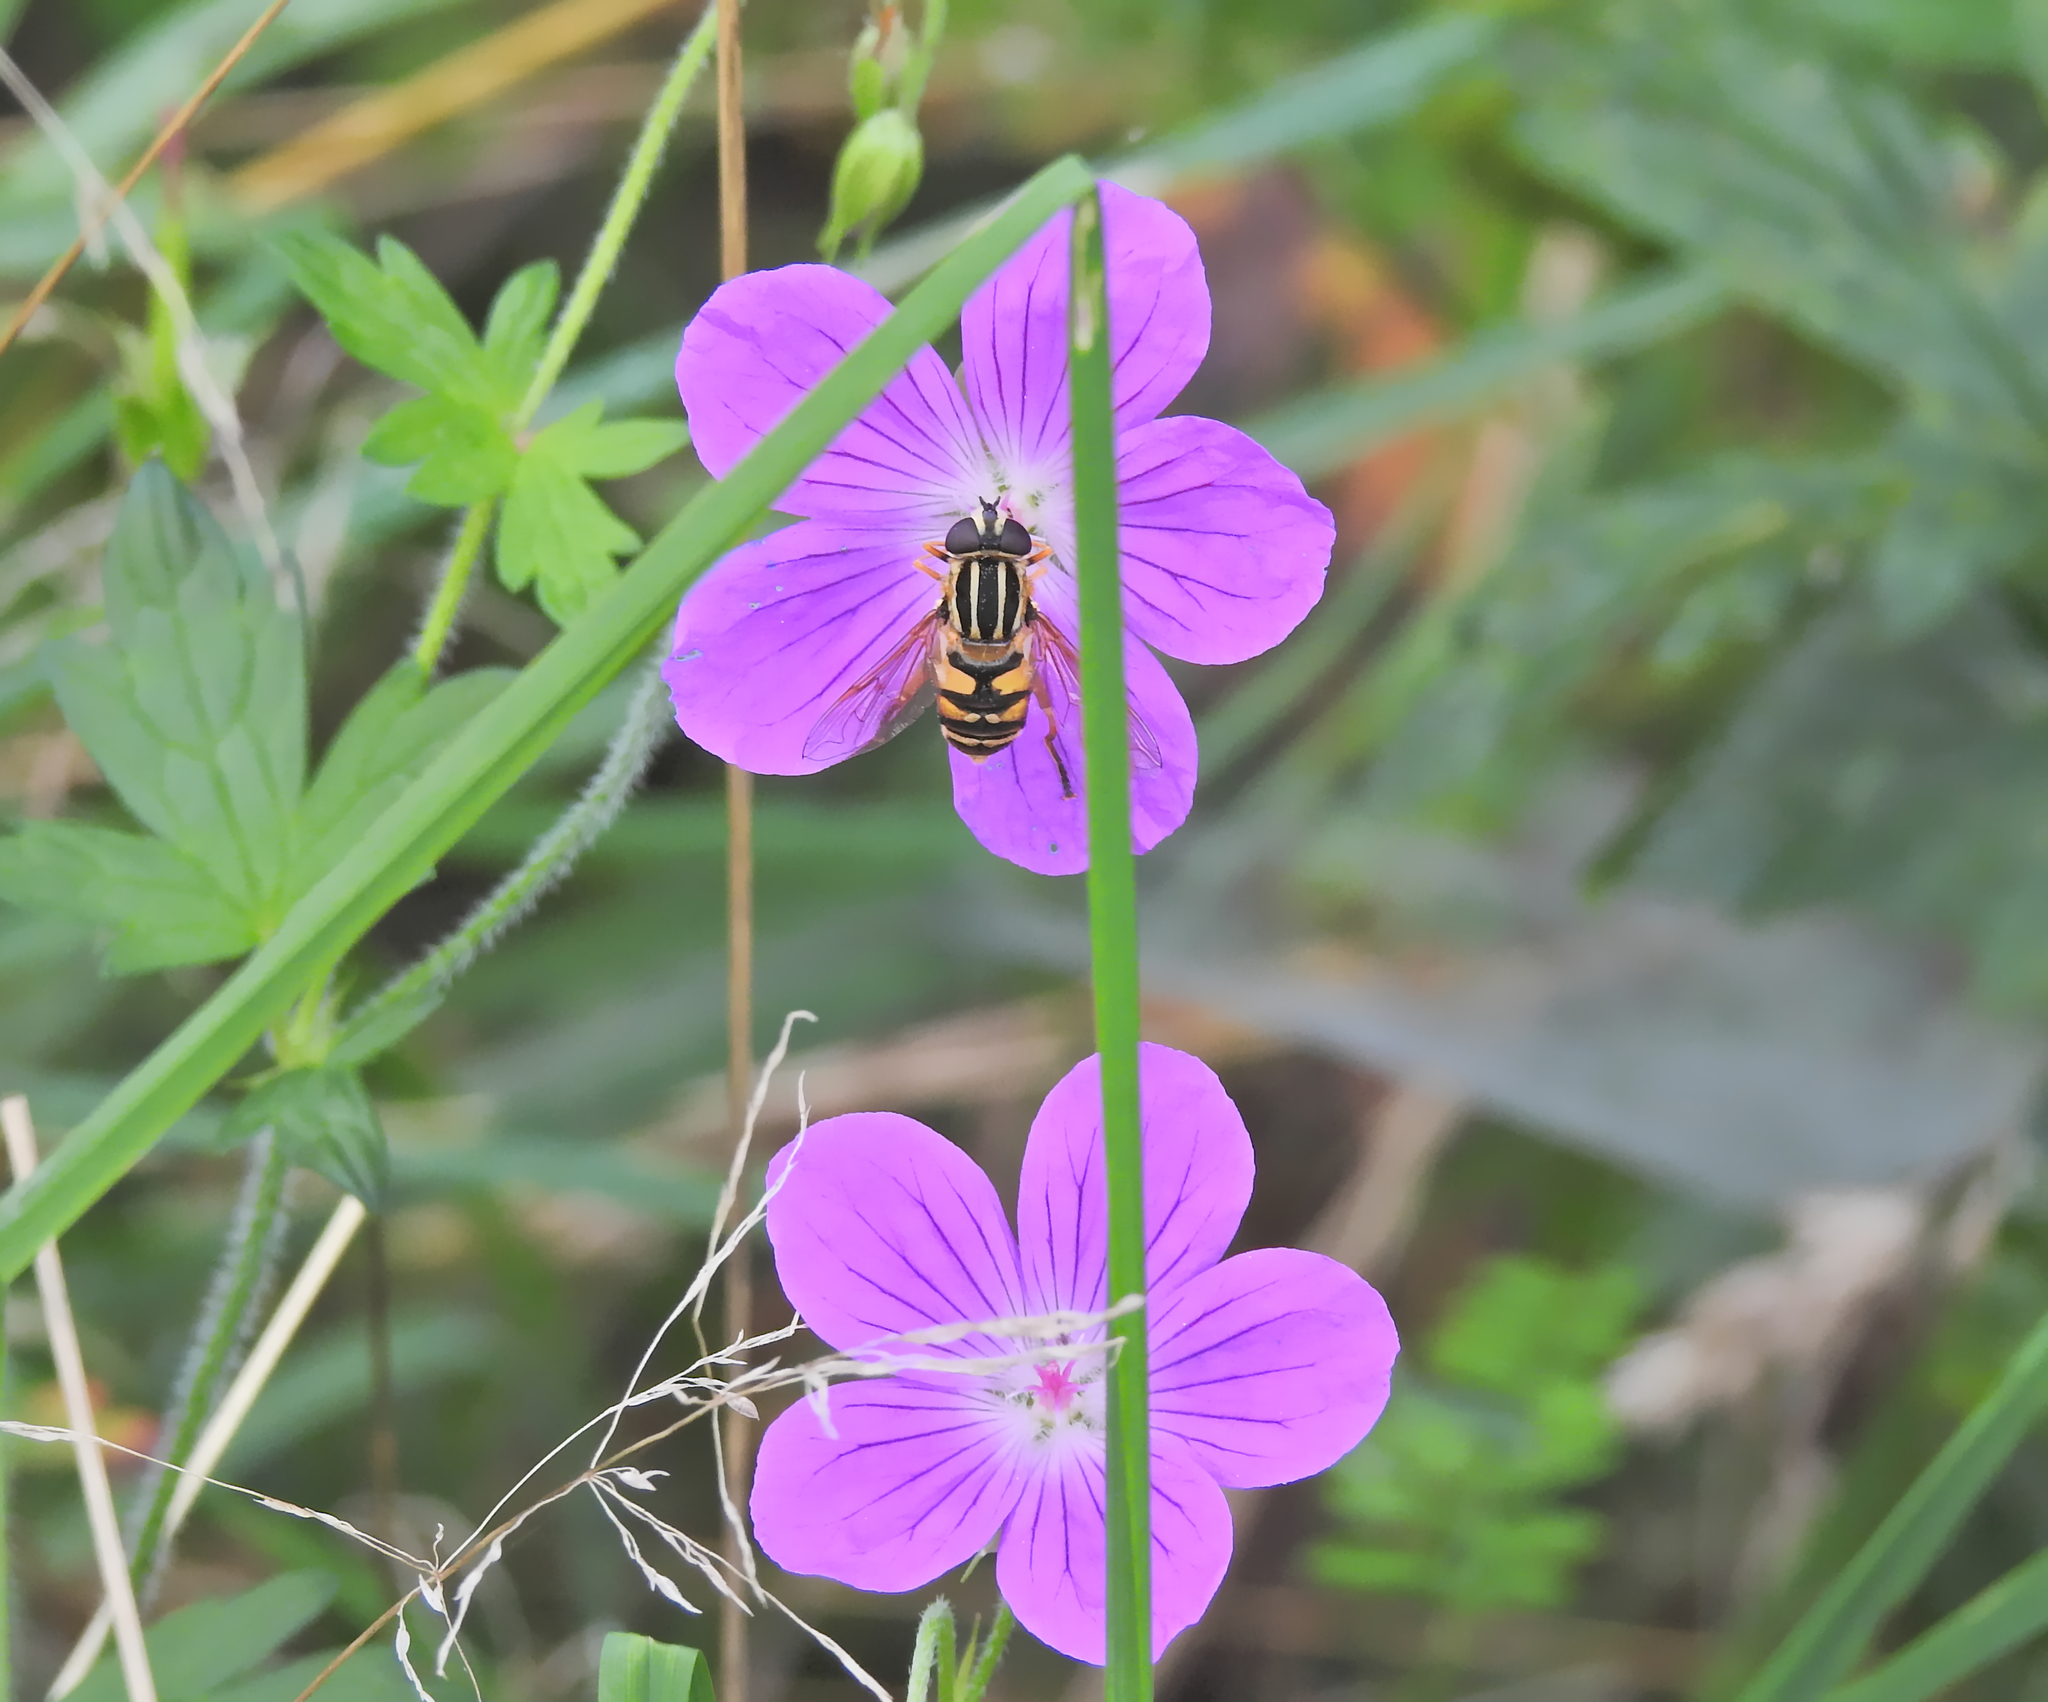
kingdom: Animalia
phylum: Arthropoda
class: Insecta
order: Diptera
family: Syrphidae
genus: Helophilus
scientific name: Helophilus pendulus
